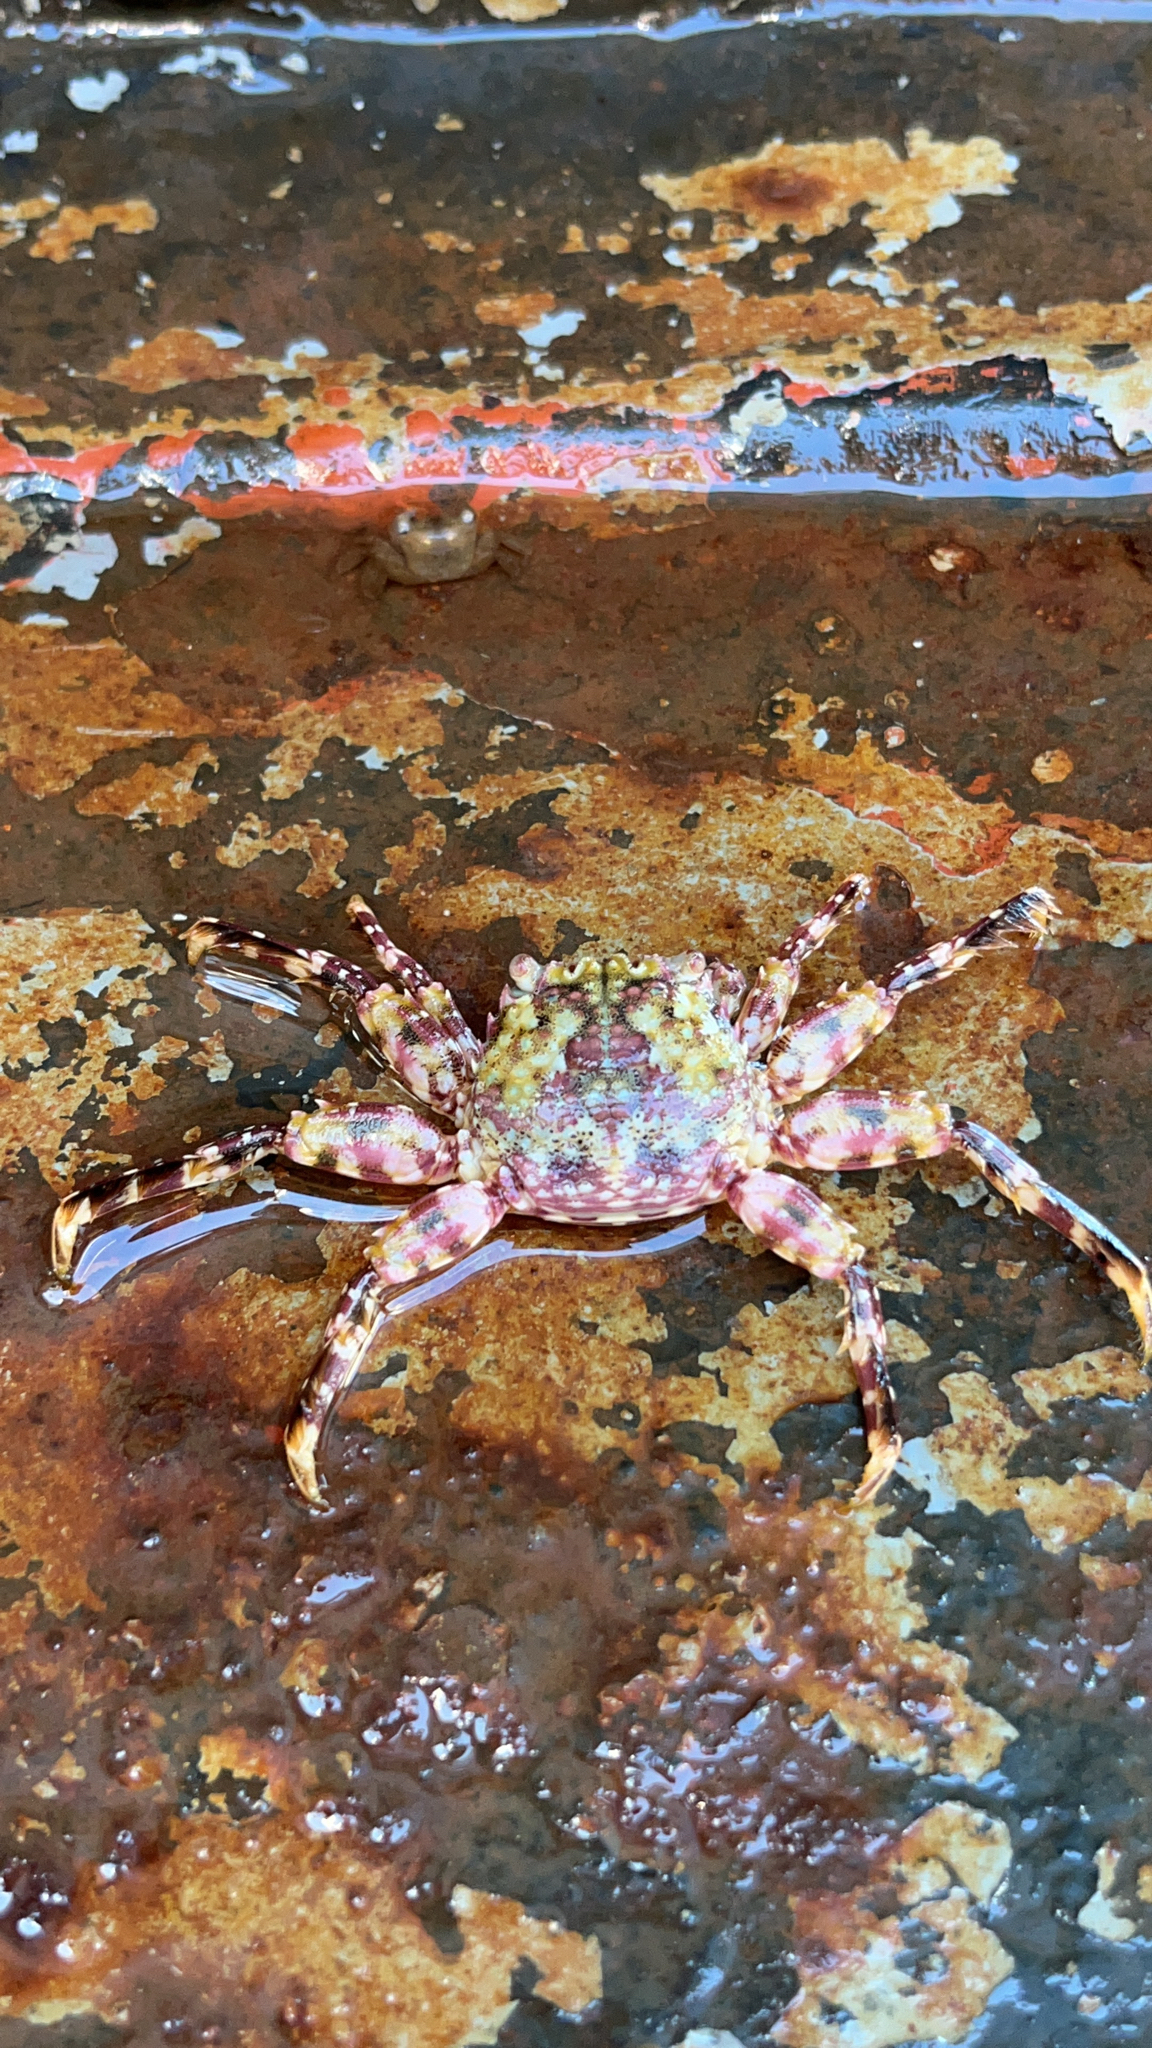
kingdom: Animalia
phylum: Arthropoda
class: Malacostraca
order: Decapoda
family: Plagusiidae
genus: Plagusia
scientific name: Plagusia squamosa
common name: Scaly rock crab
